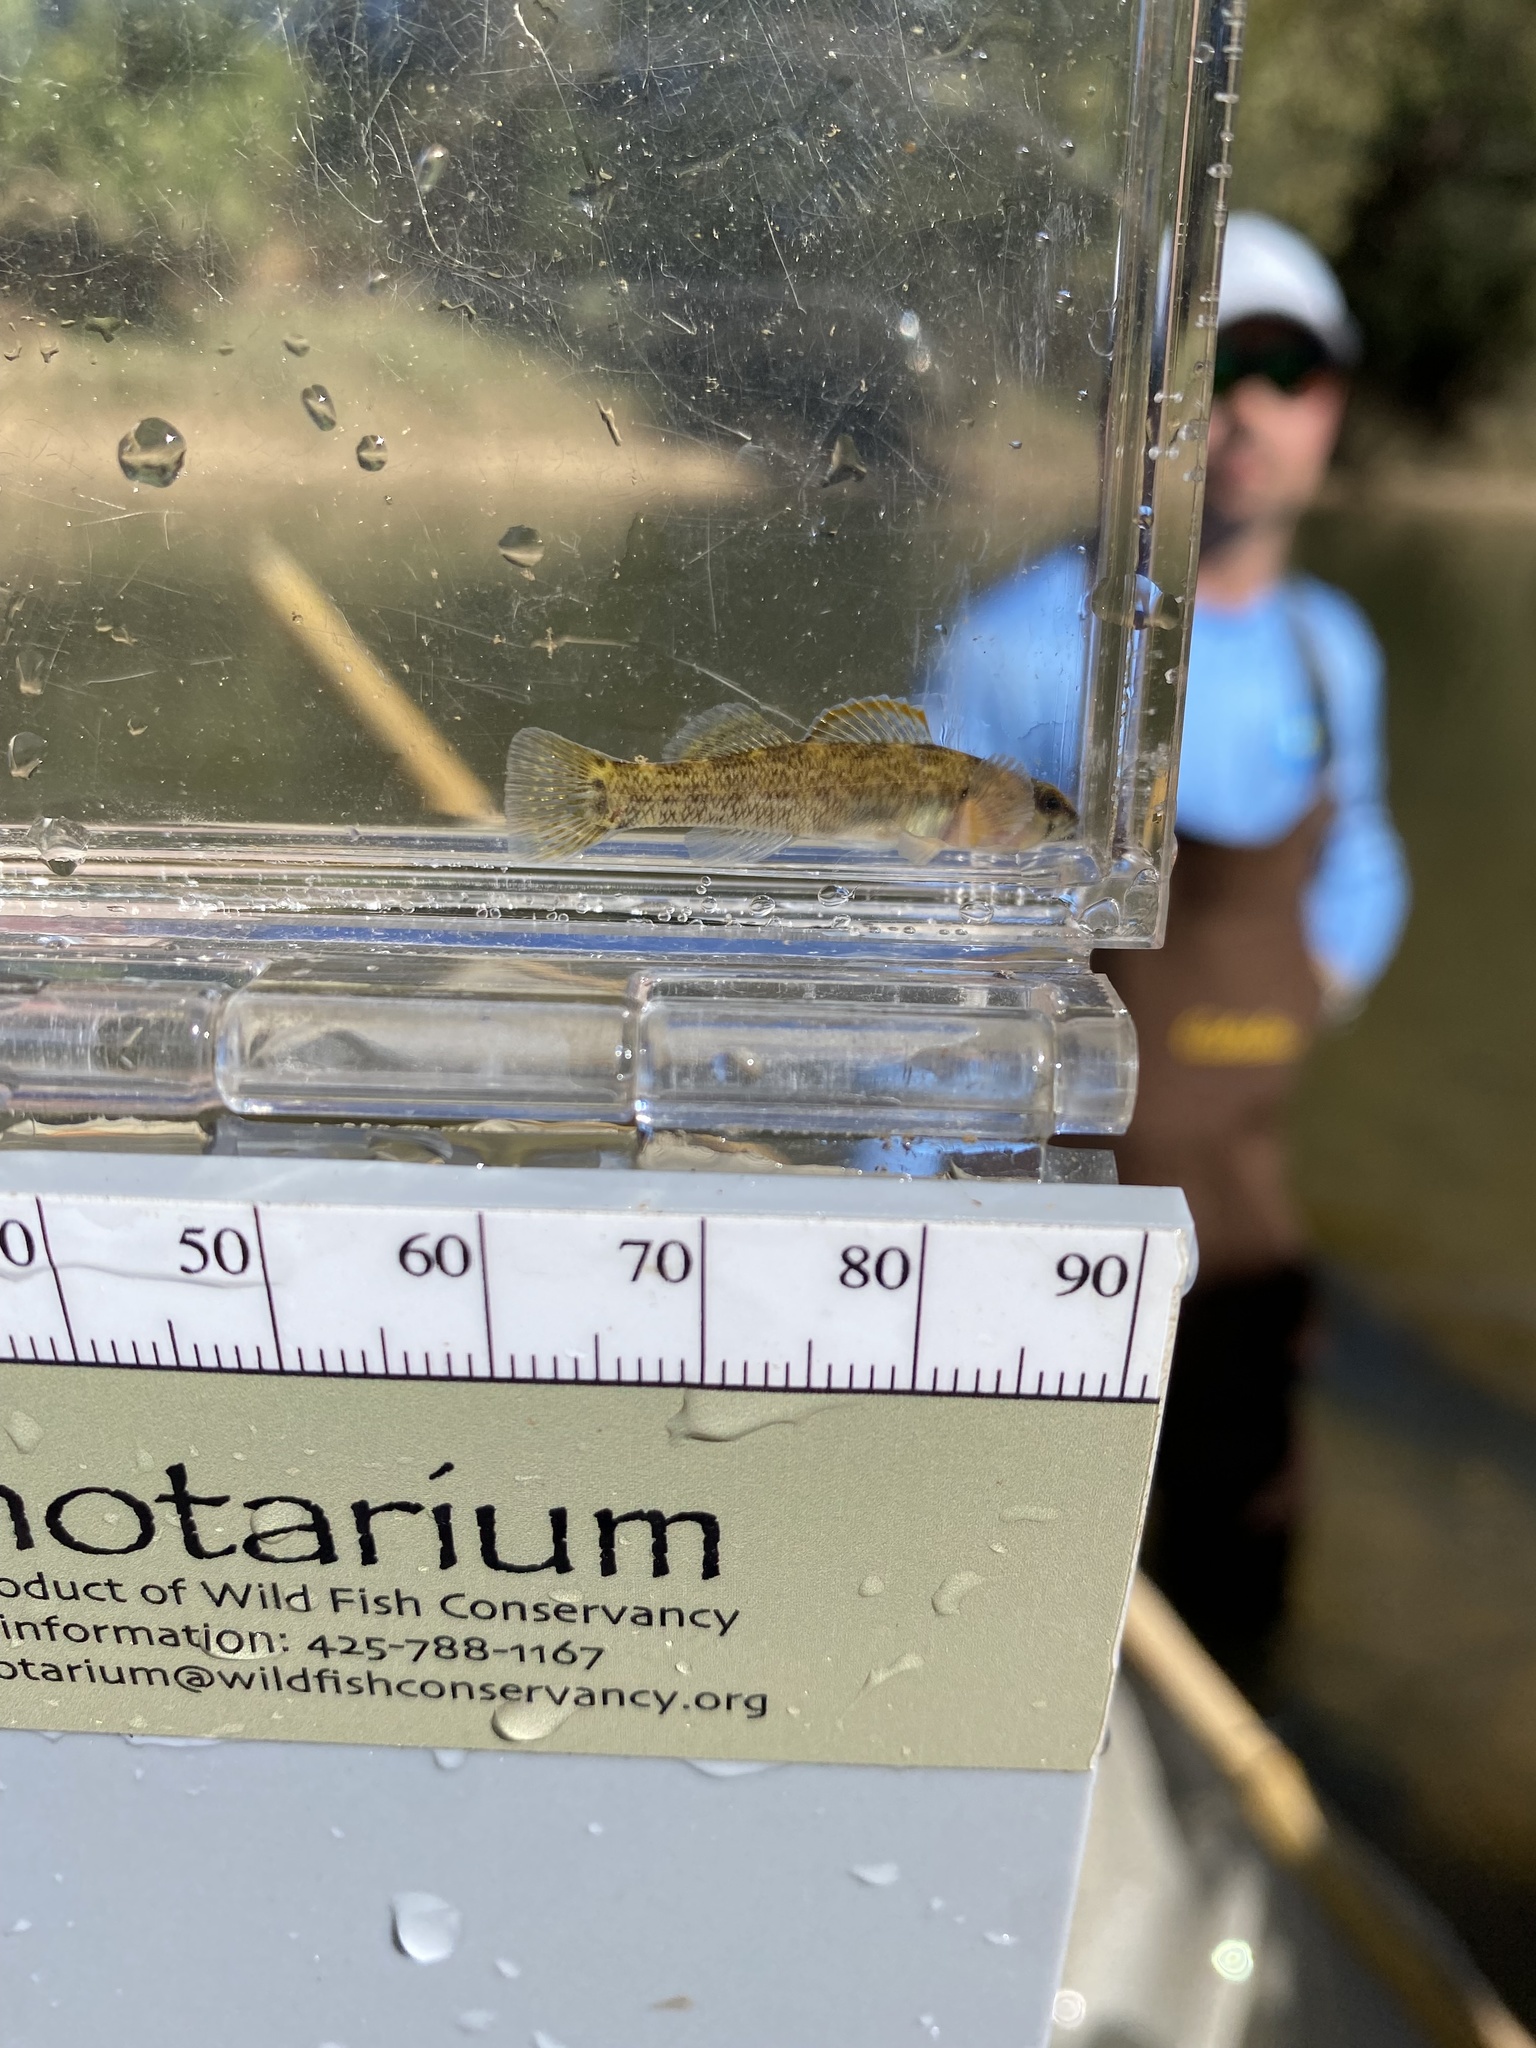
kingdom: Animalia
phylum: Chordata
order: Perciformes
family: Percidae
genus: Etheostoma
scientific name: Etheostoma jordani
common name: Greenbreast darter
